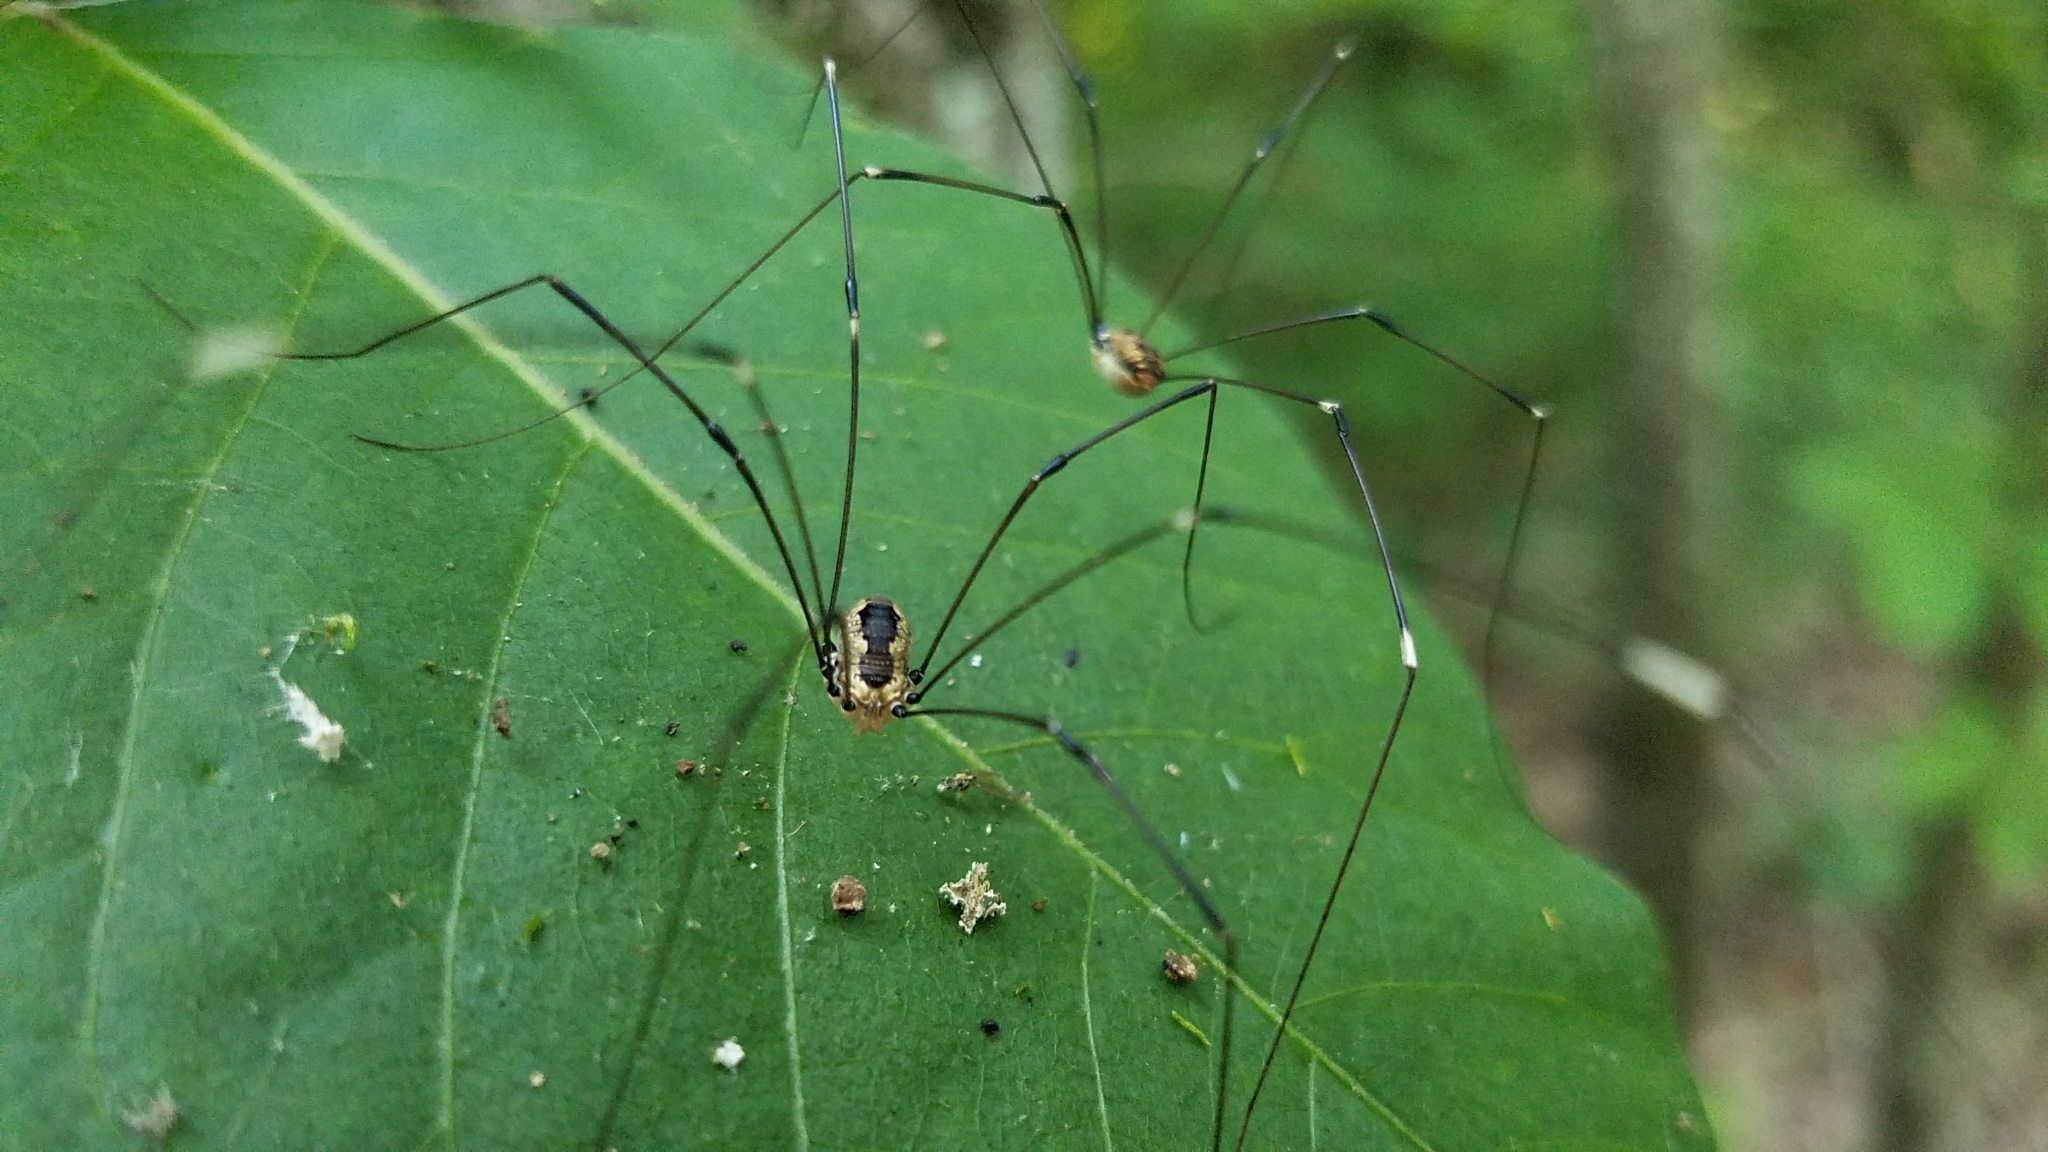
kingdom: Animalia
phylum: Arthropoda
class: Arachnida
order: Opiliones
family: Sclerosomatidae
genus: Leiobunum
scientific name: Leiobunum aldrichi
